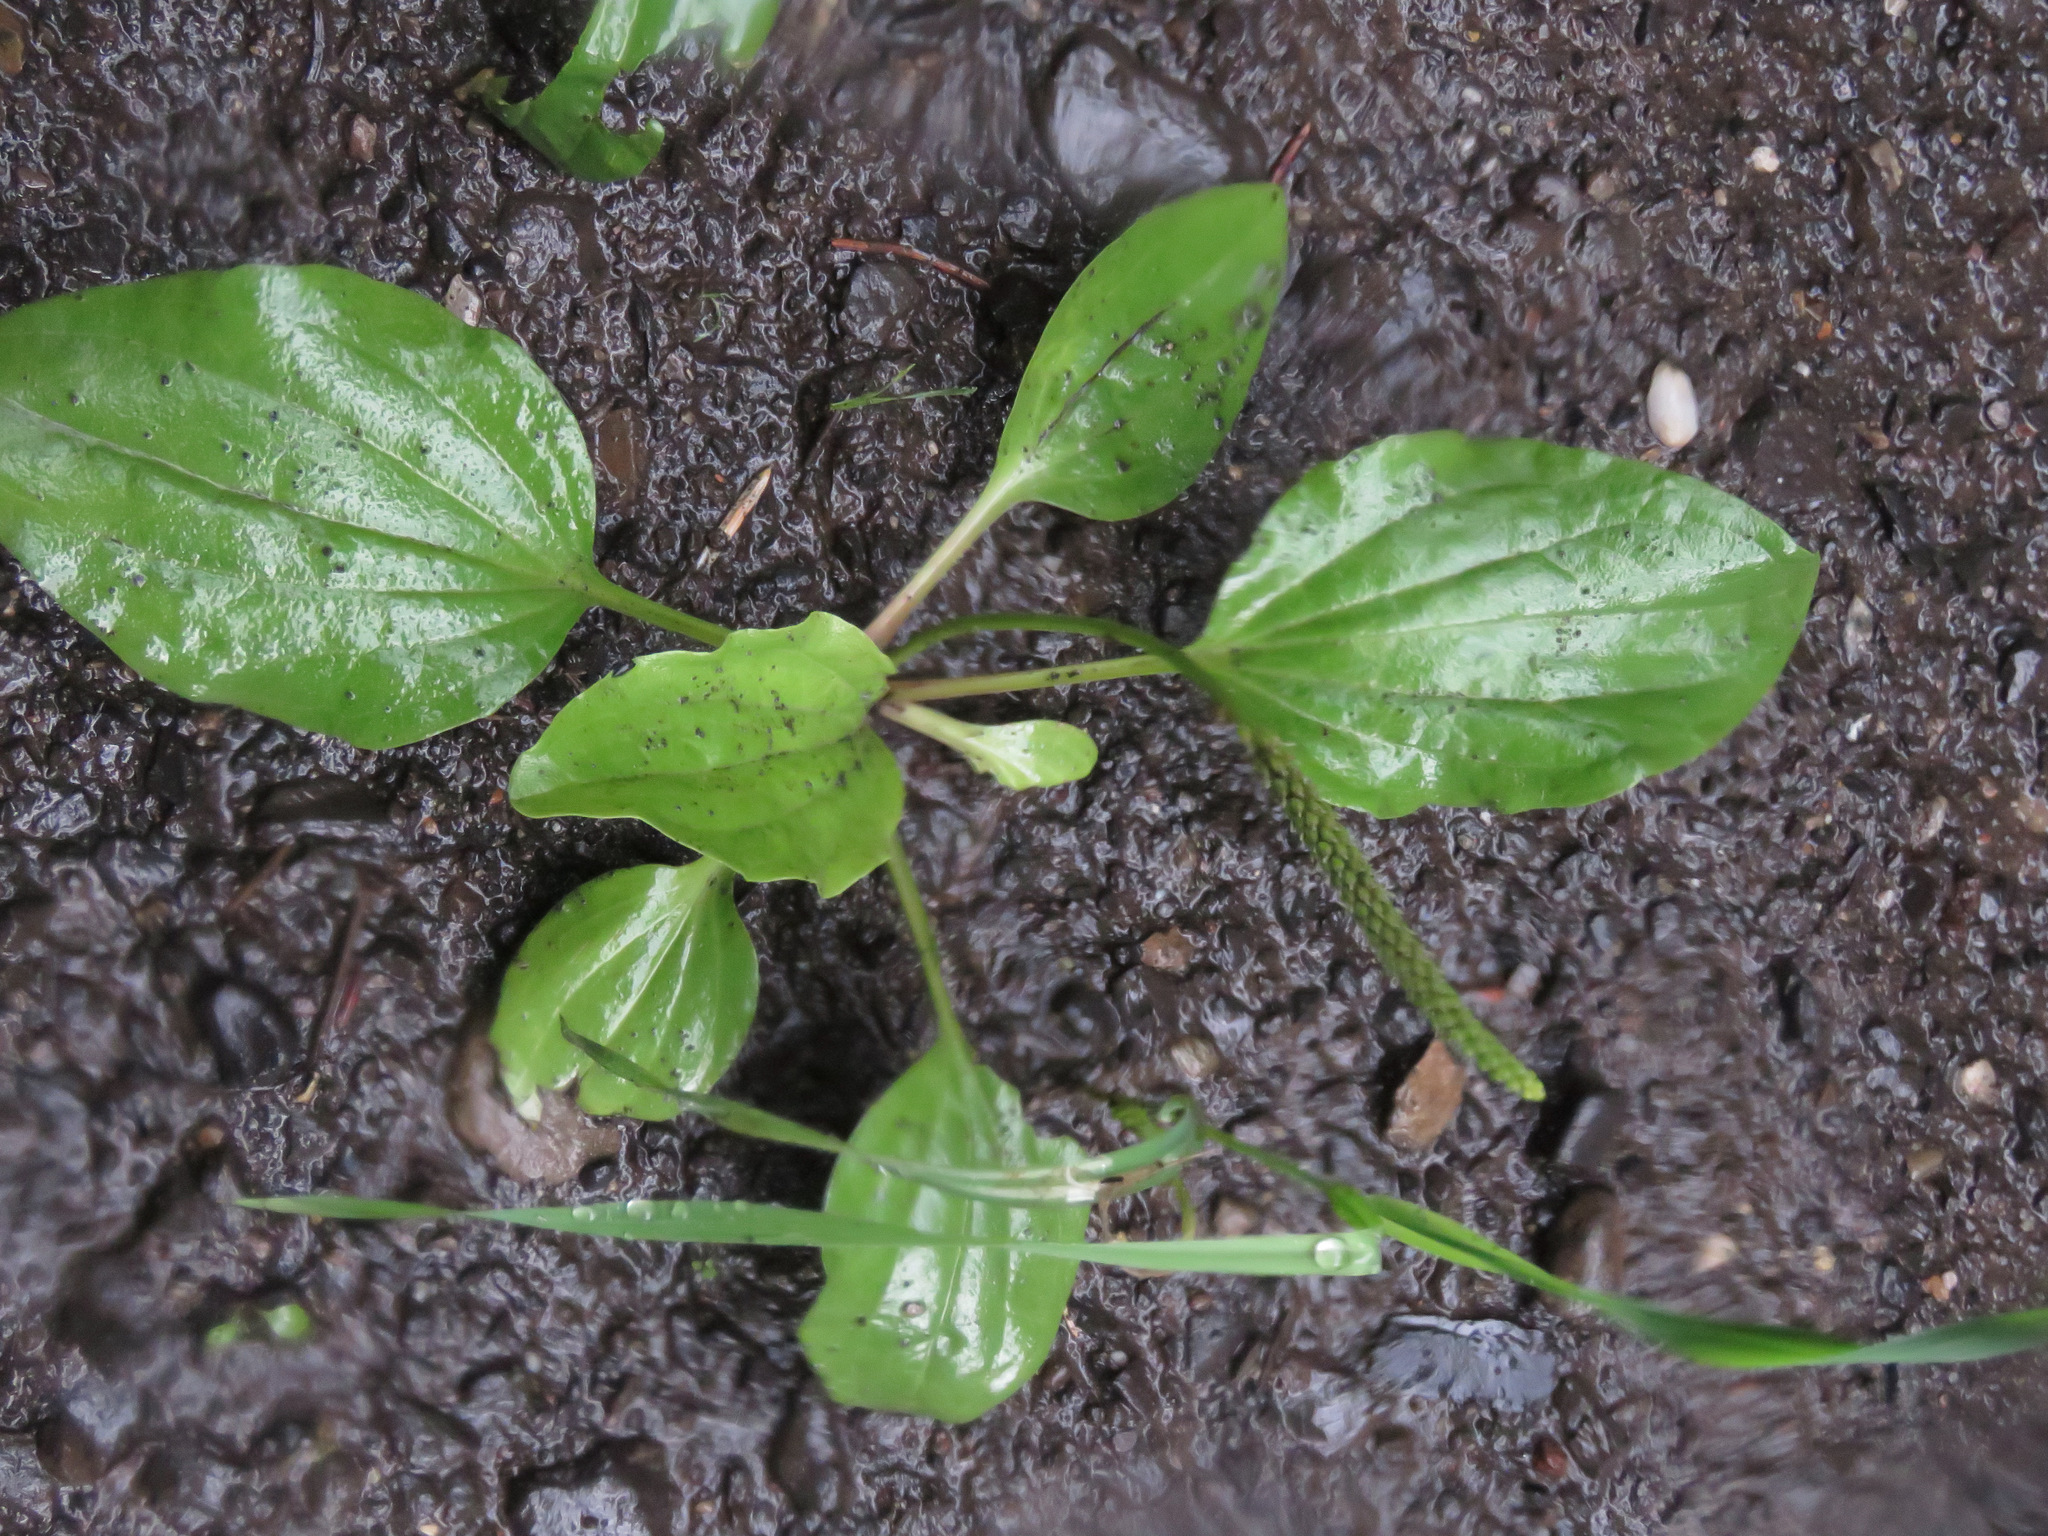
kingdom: Plantae
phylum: Tracheophyta
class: Magnoliopsida
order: Lamiales
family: Plantaginaceae
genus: Plantago
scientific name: Plantago major
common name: Common plantain
